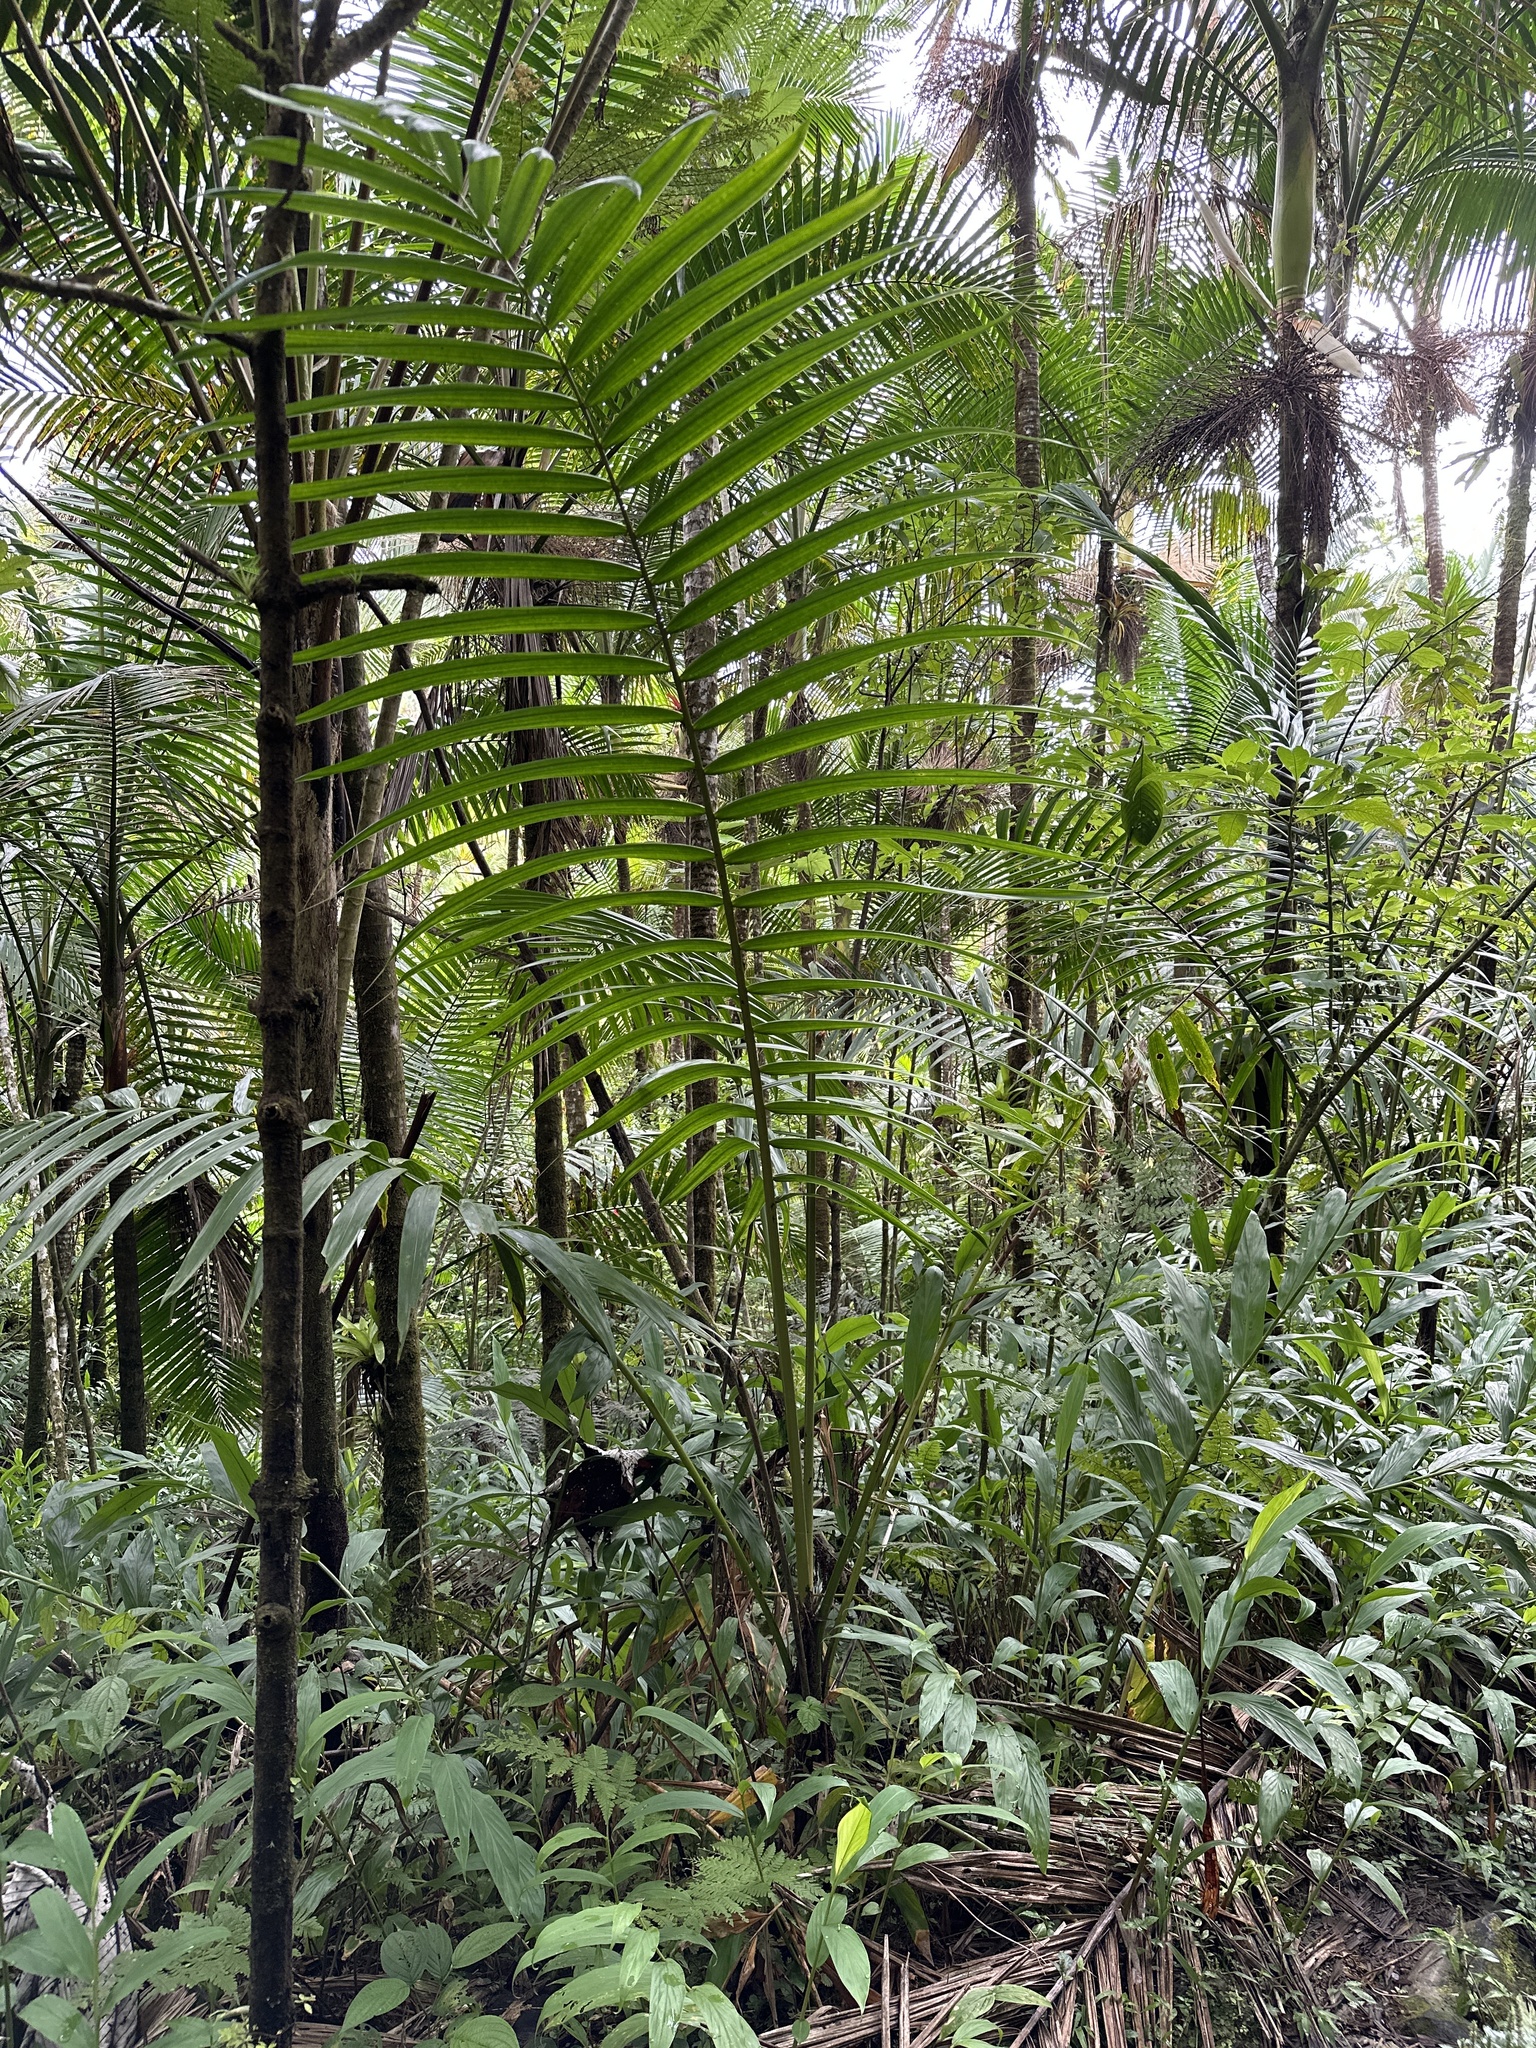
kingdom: Plantae
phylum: Tracheophyta
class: Liliopsida
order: Arecales
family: Arecaceae
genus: Prestoea
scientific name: Prestoea acuminata
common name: Sierran palm
